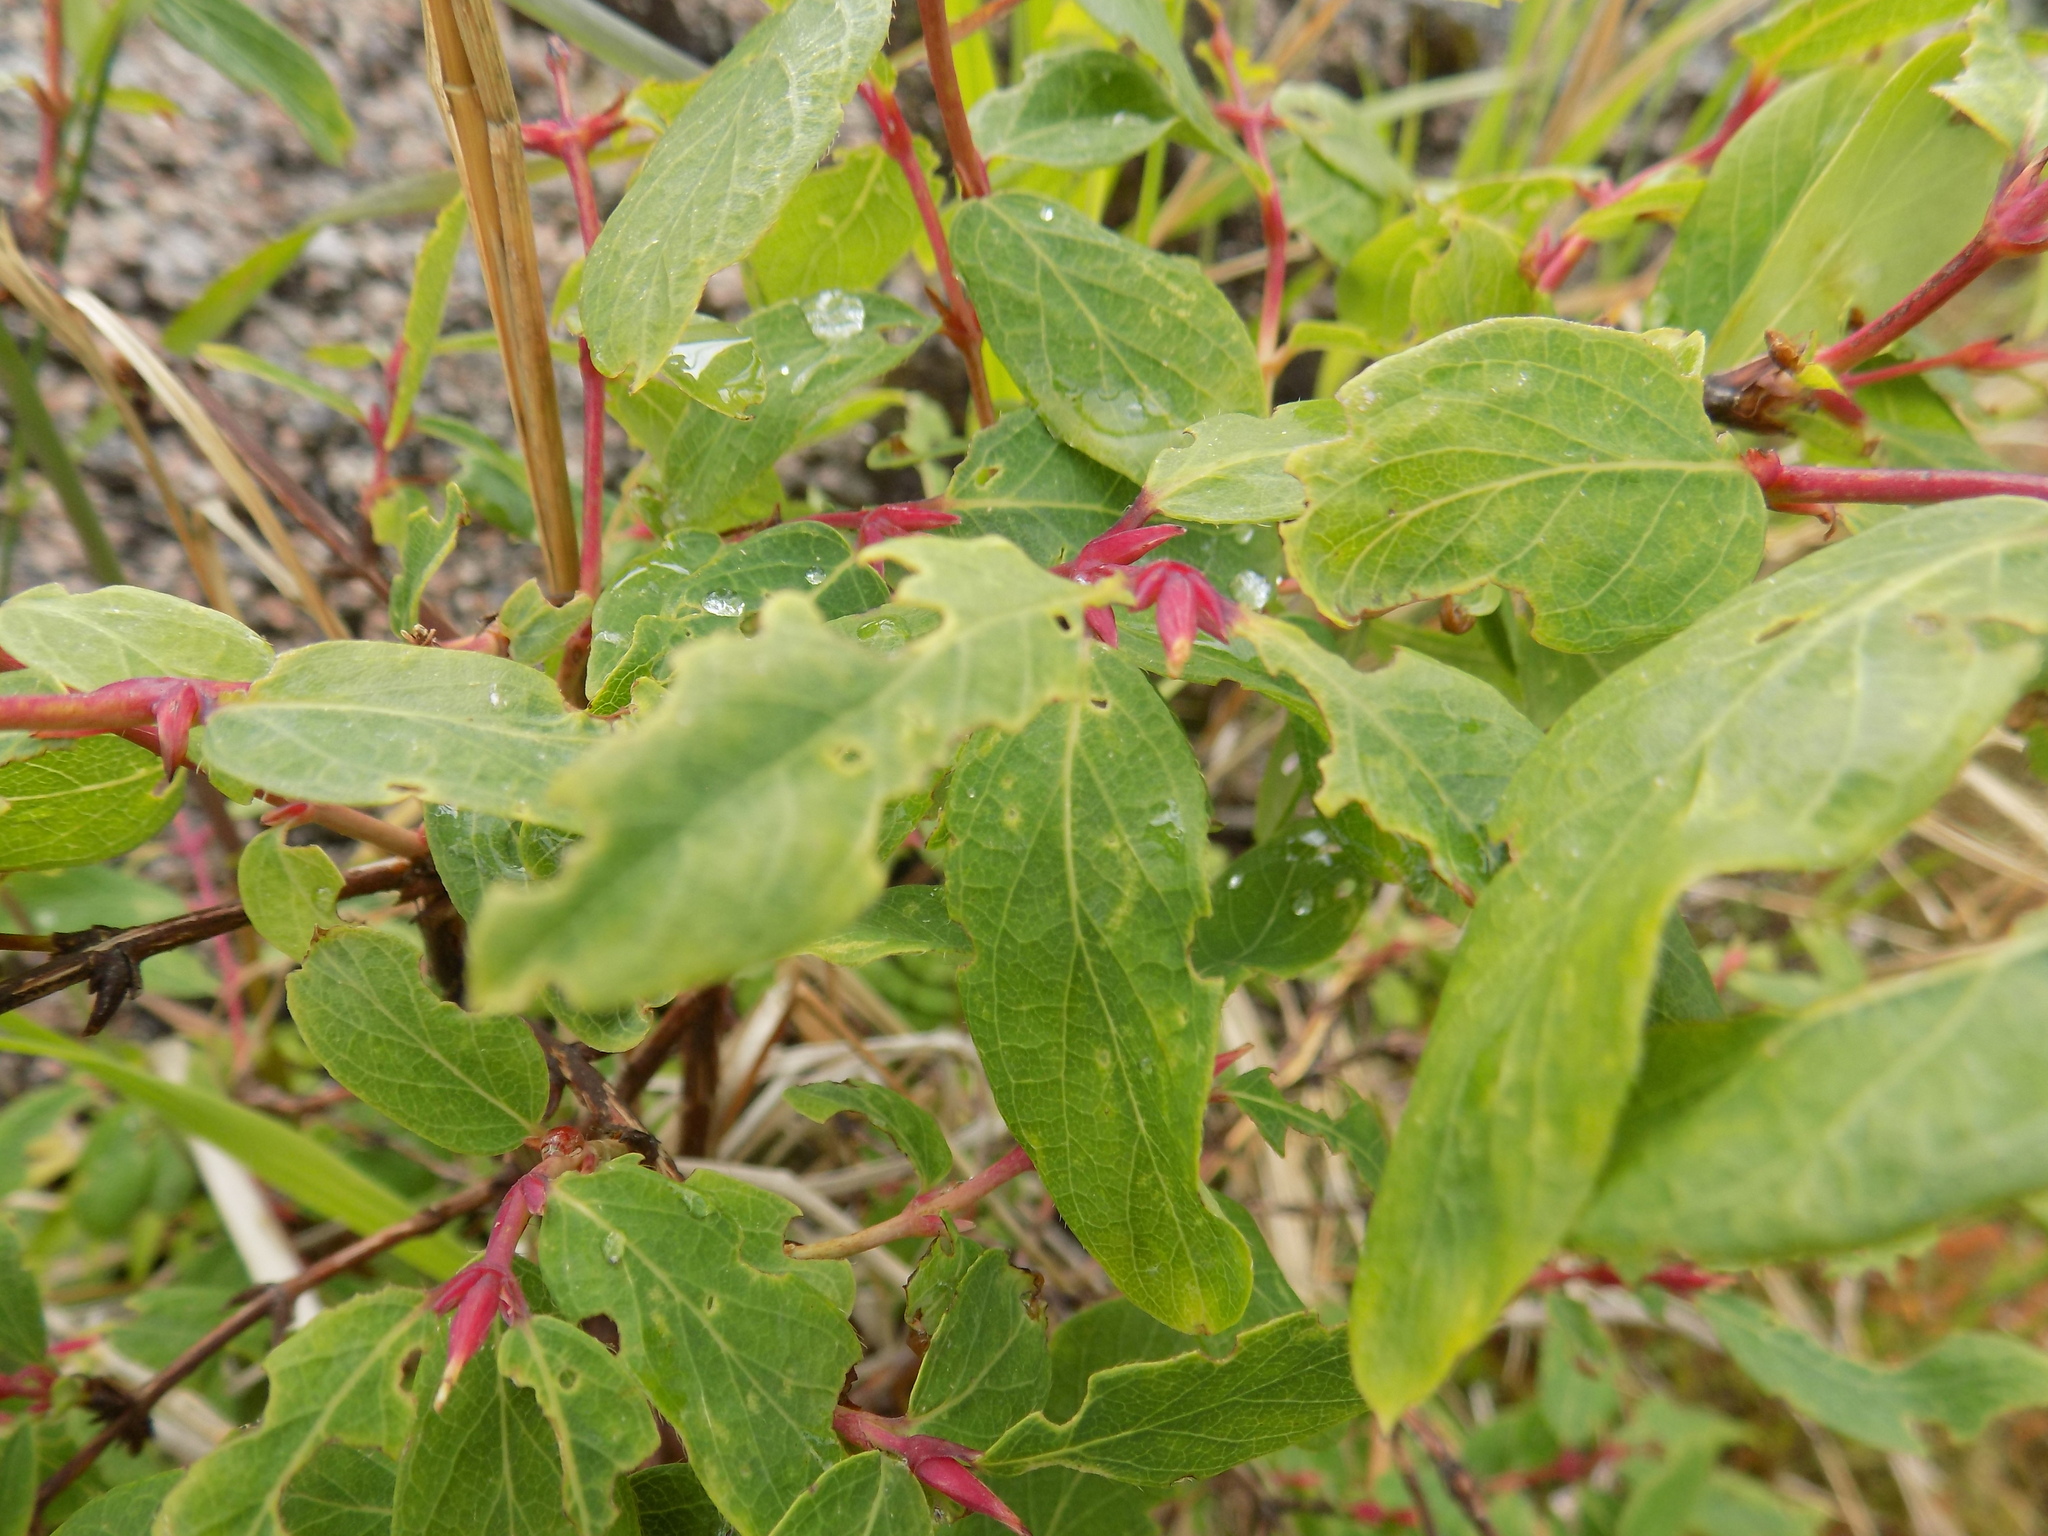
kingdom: Plantae
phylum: Tracheophyta
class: Magnoliopsida
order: Dipsacales
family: Caprifoliaceae
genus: Lonicera
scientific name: Lonicera caerulea
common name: Blue honeysuckle
